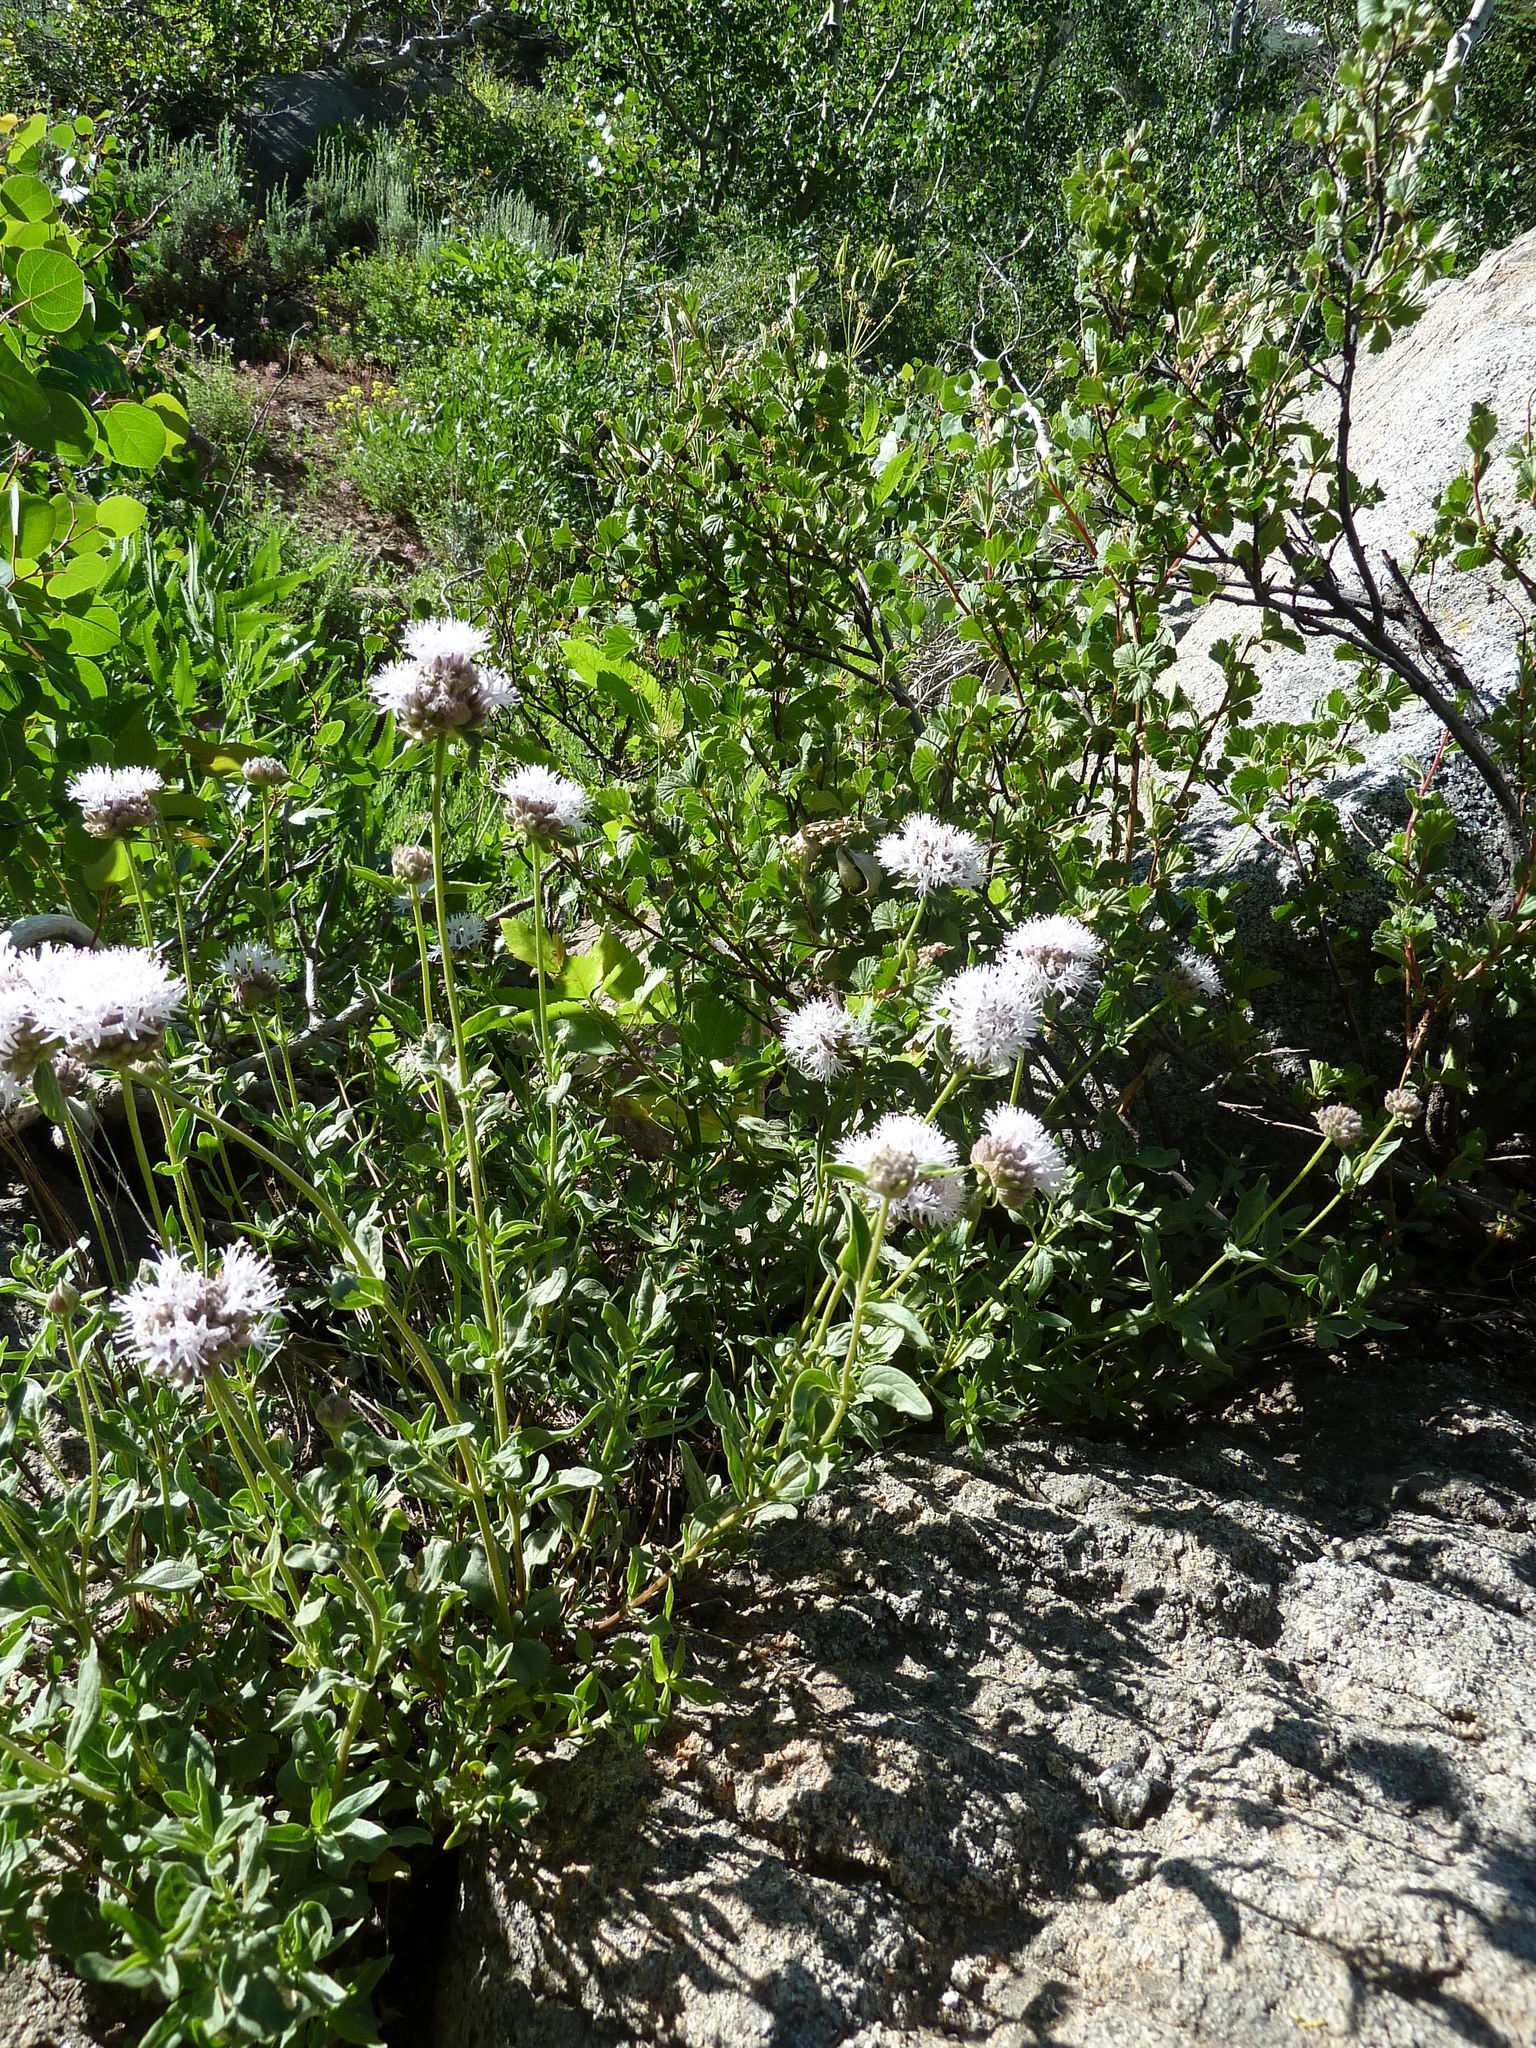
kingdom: Plantae
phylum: Tracheophyta
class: Magnoliopsida
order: Lamiales
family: Lamiaceae
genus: Monardella
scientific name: Monardella odoratissima
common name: Pacific monardella
